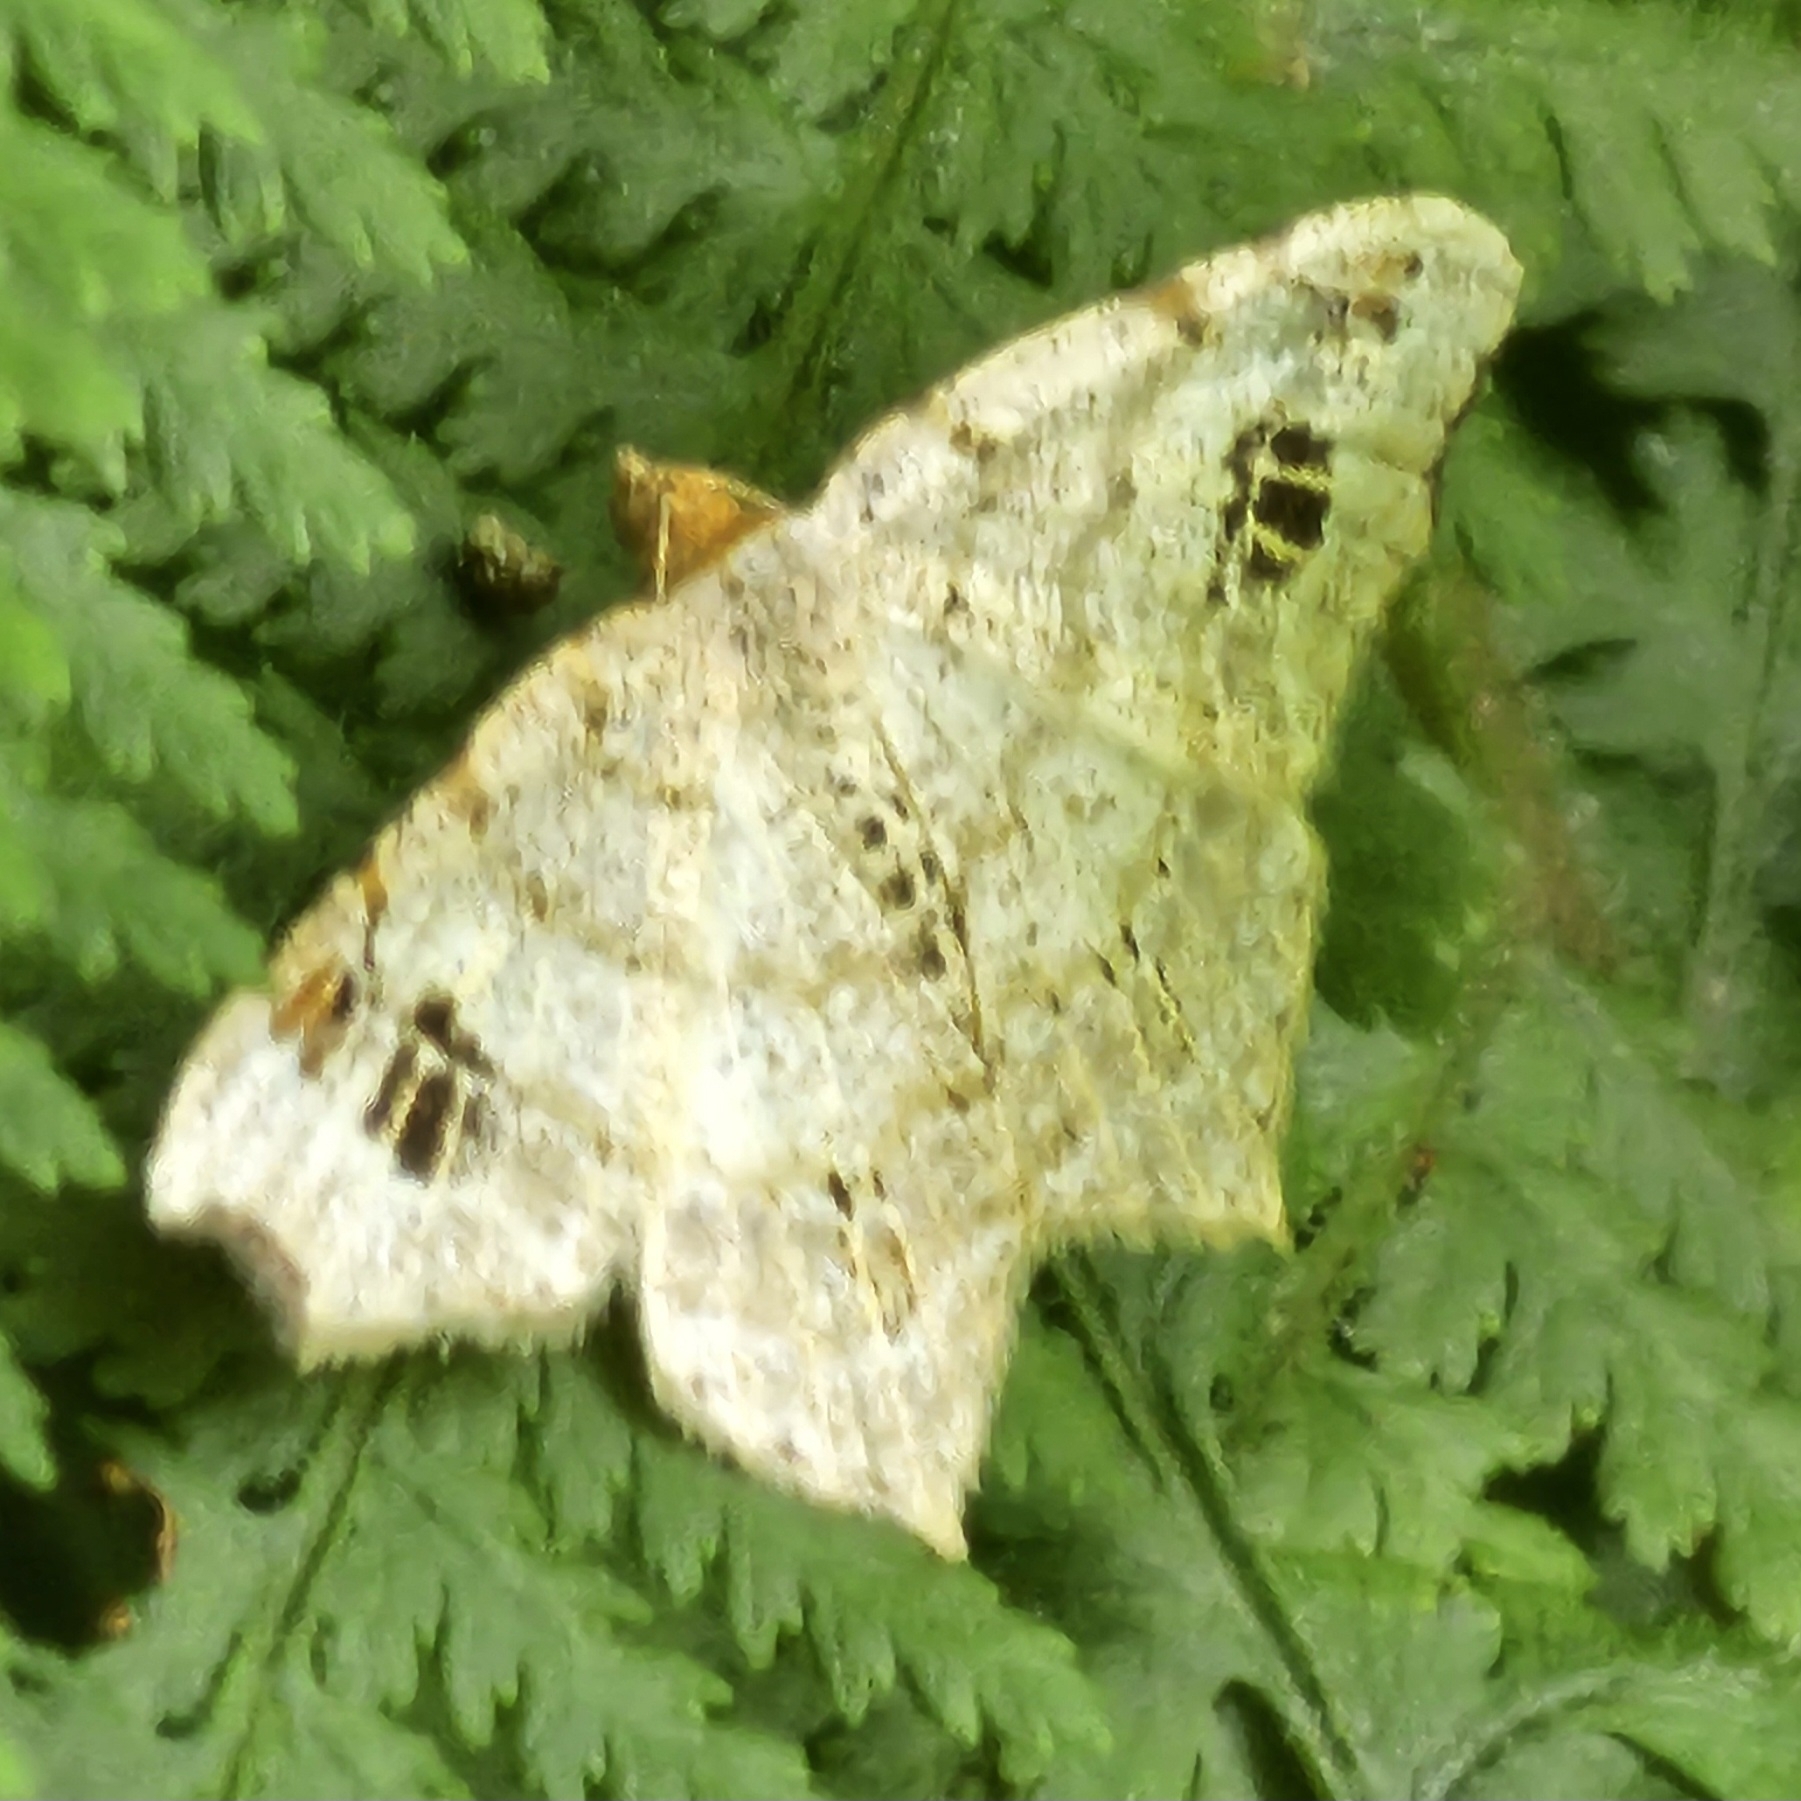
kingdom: Animalia
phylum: Arthropoda
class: Insecta
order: Lepidoptera
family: Geometridae
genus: Macaria
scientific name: Macaria aemulataria
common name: Common angle
